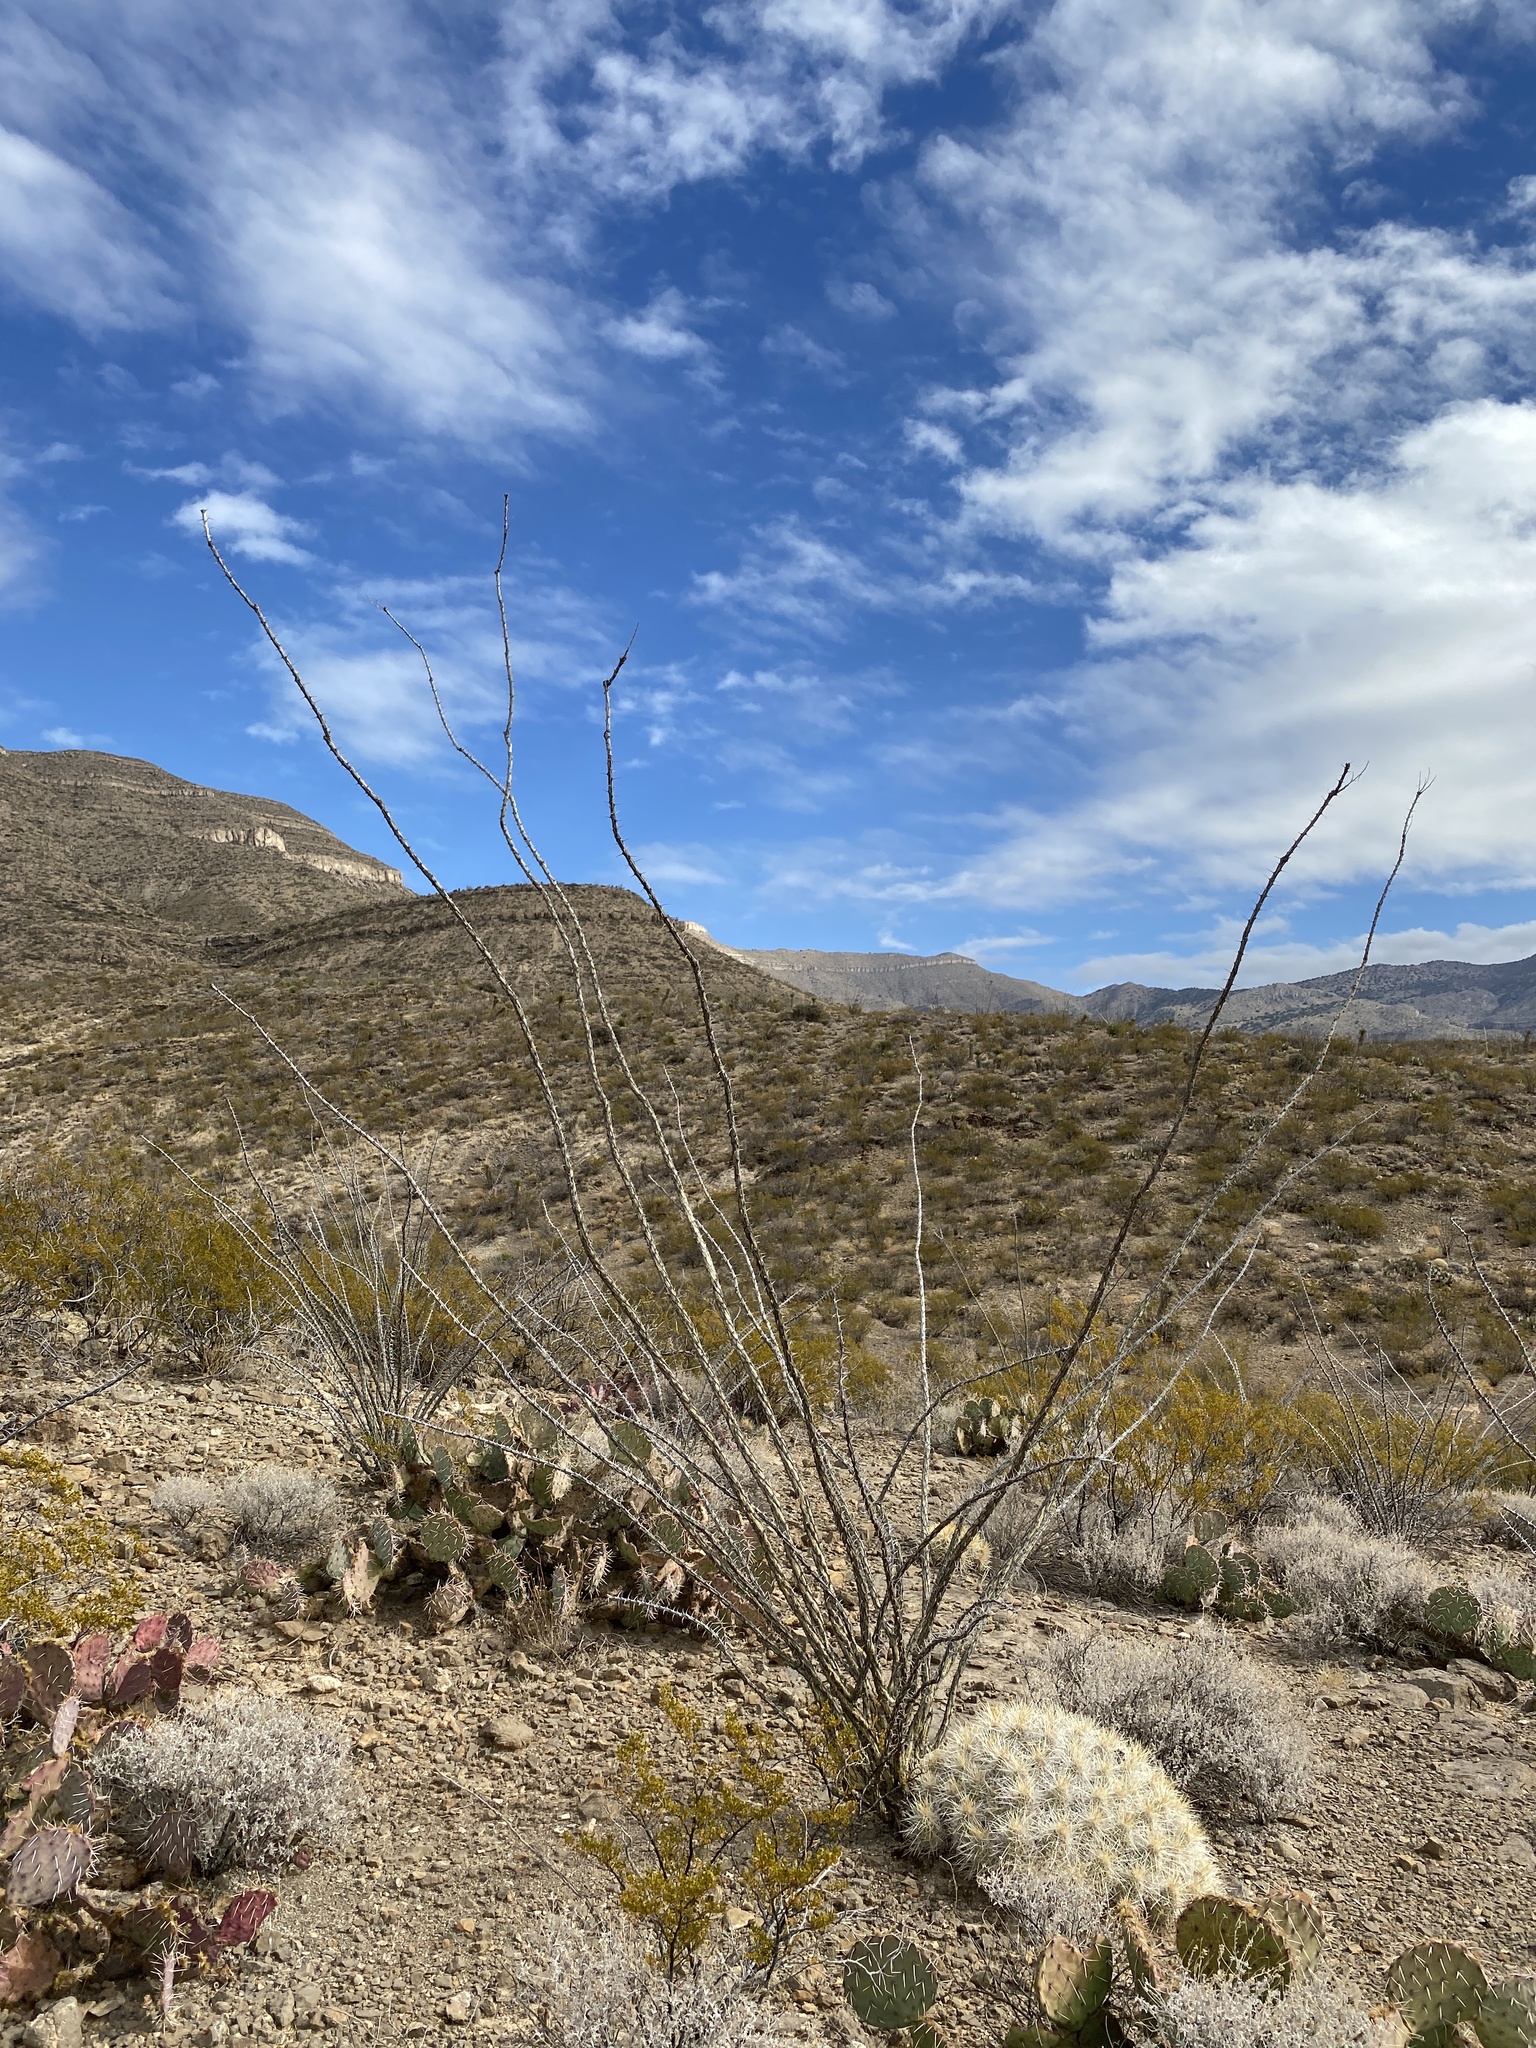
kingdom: Plantae
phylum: Tracheophyta
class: Magnoliopsida
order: Ericales
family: Fouquieriaceae
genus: Fouquieria
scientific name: Fouquieria splendens
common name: Vine-cactus
